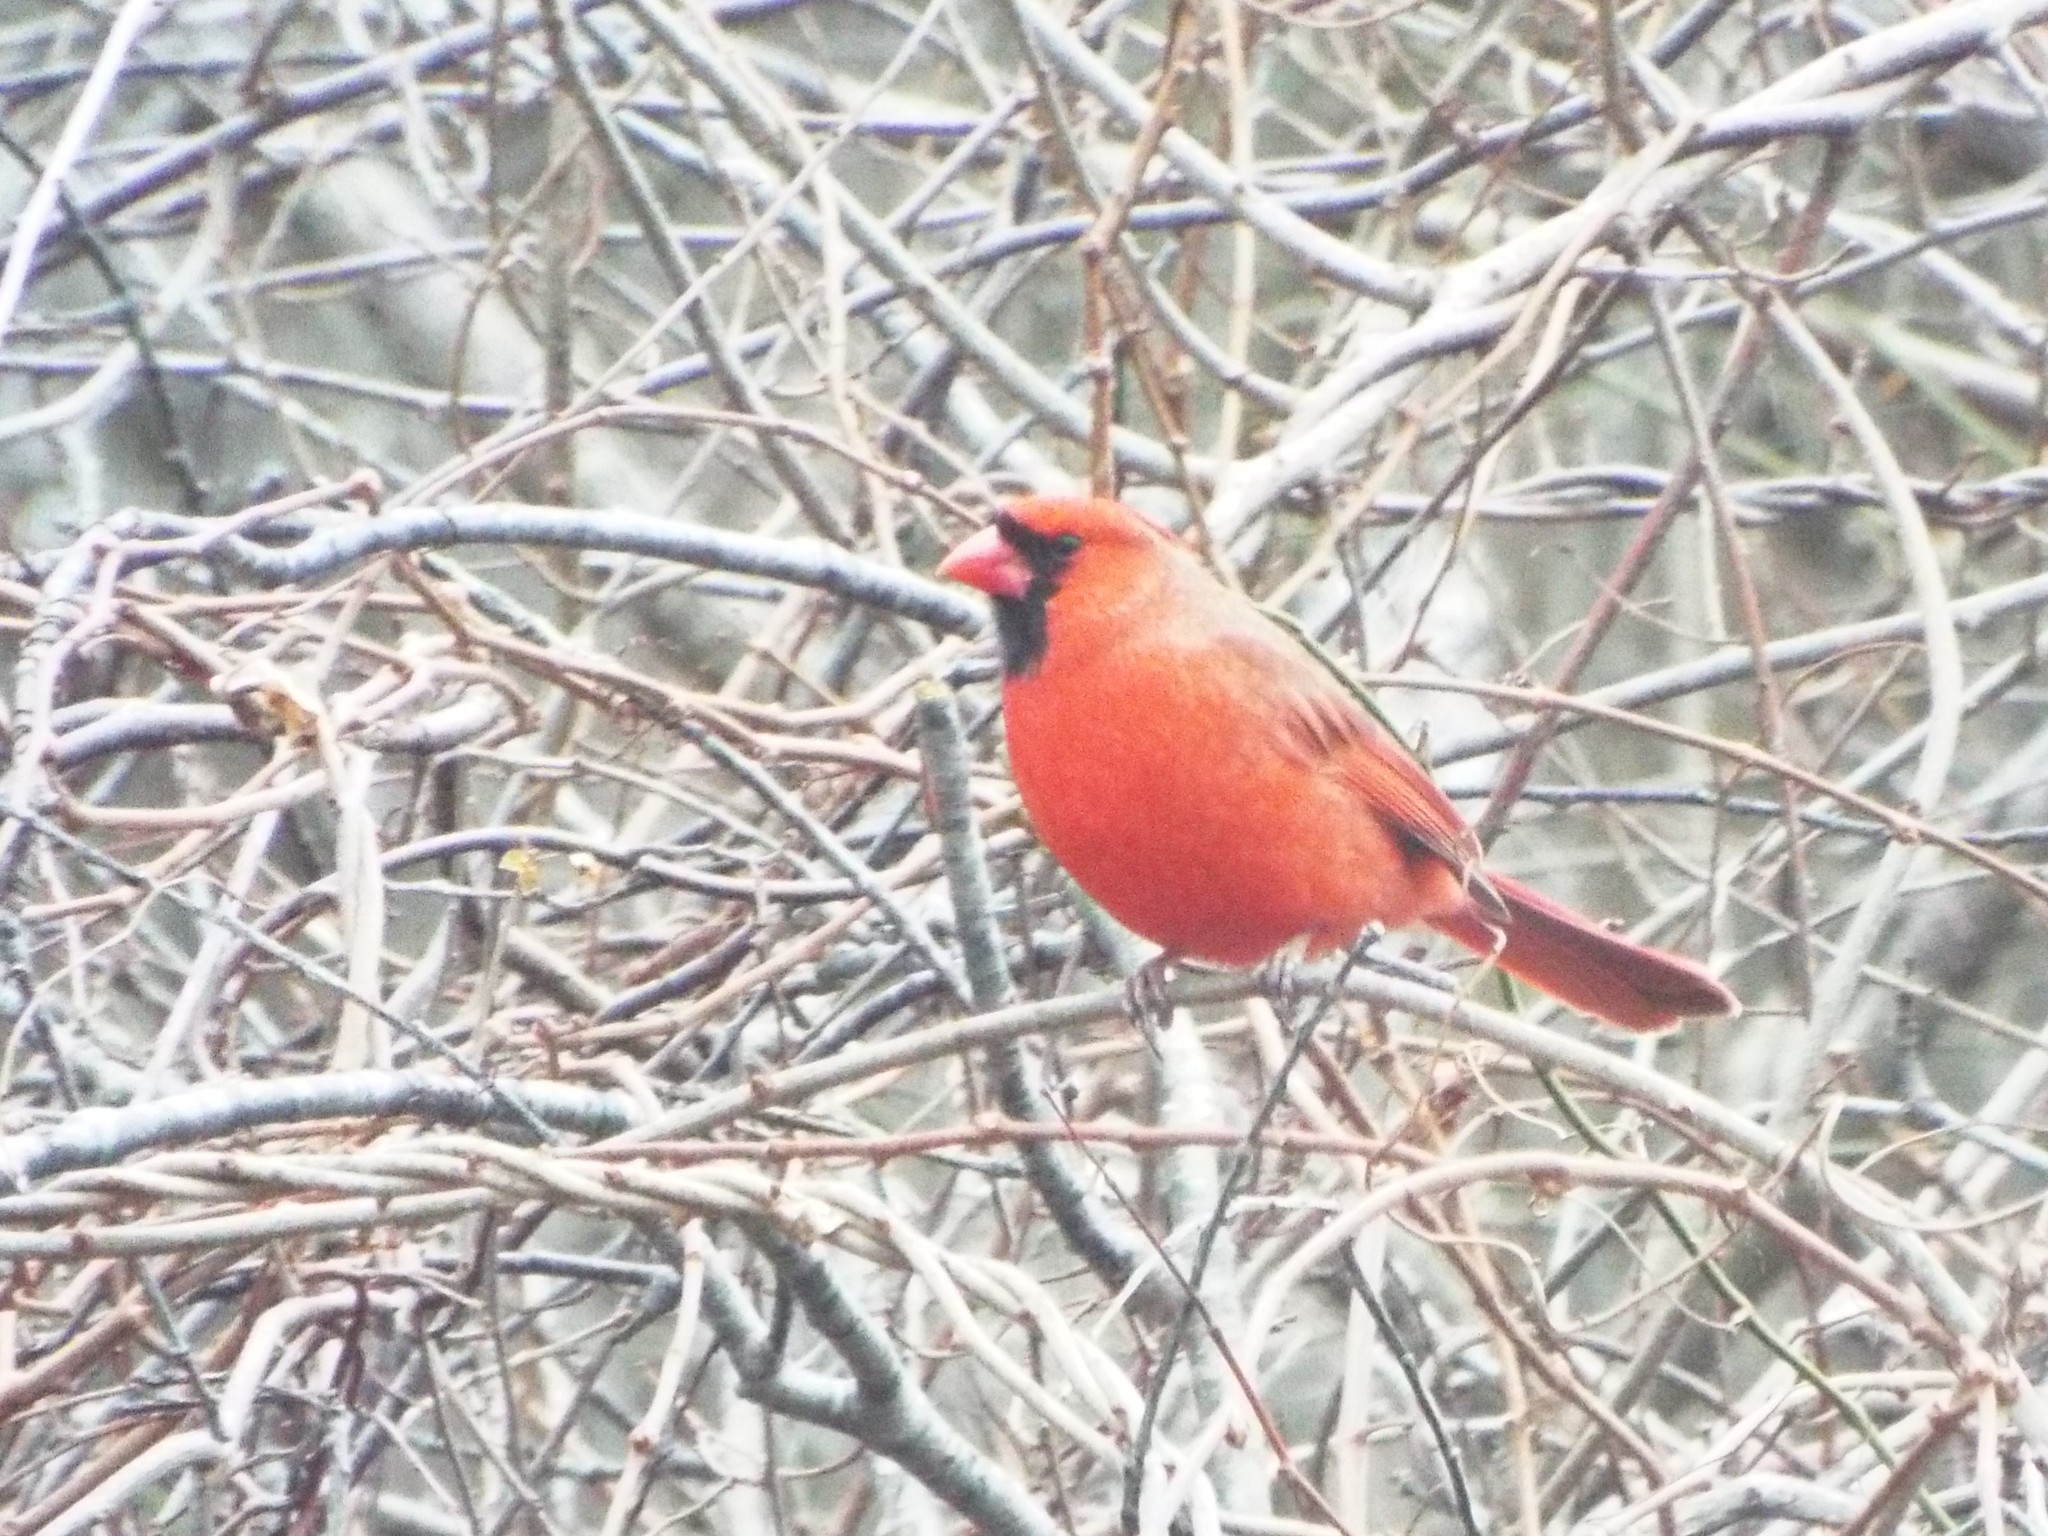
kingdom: Animalia
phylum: Chordata
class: Aves
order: Passeriformes
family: Cardinalidae
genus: Cardinalis
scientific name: Cardinalis cardinalis
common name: Northern cardinal
